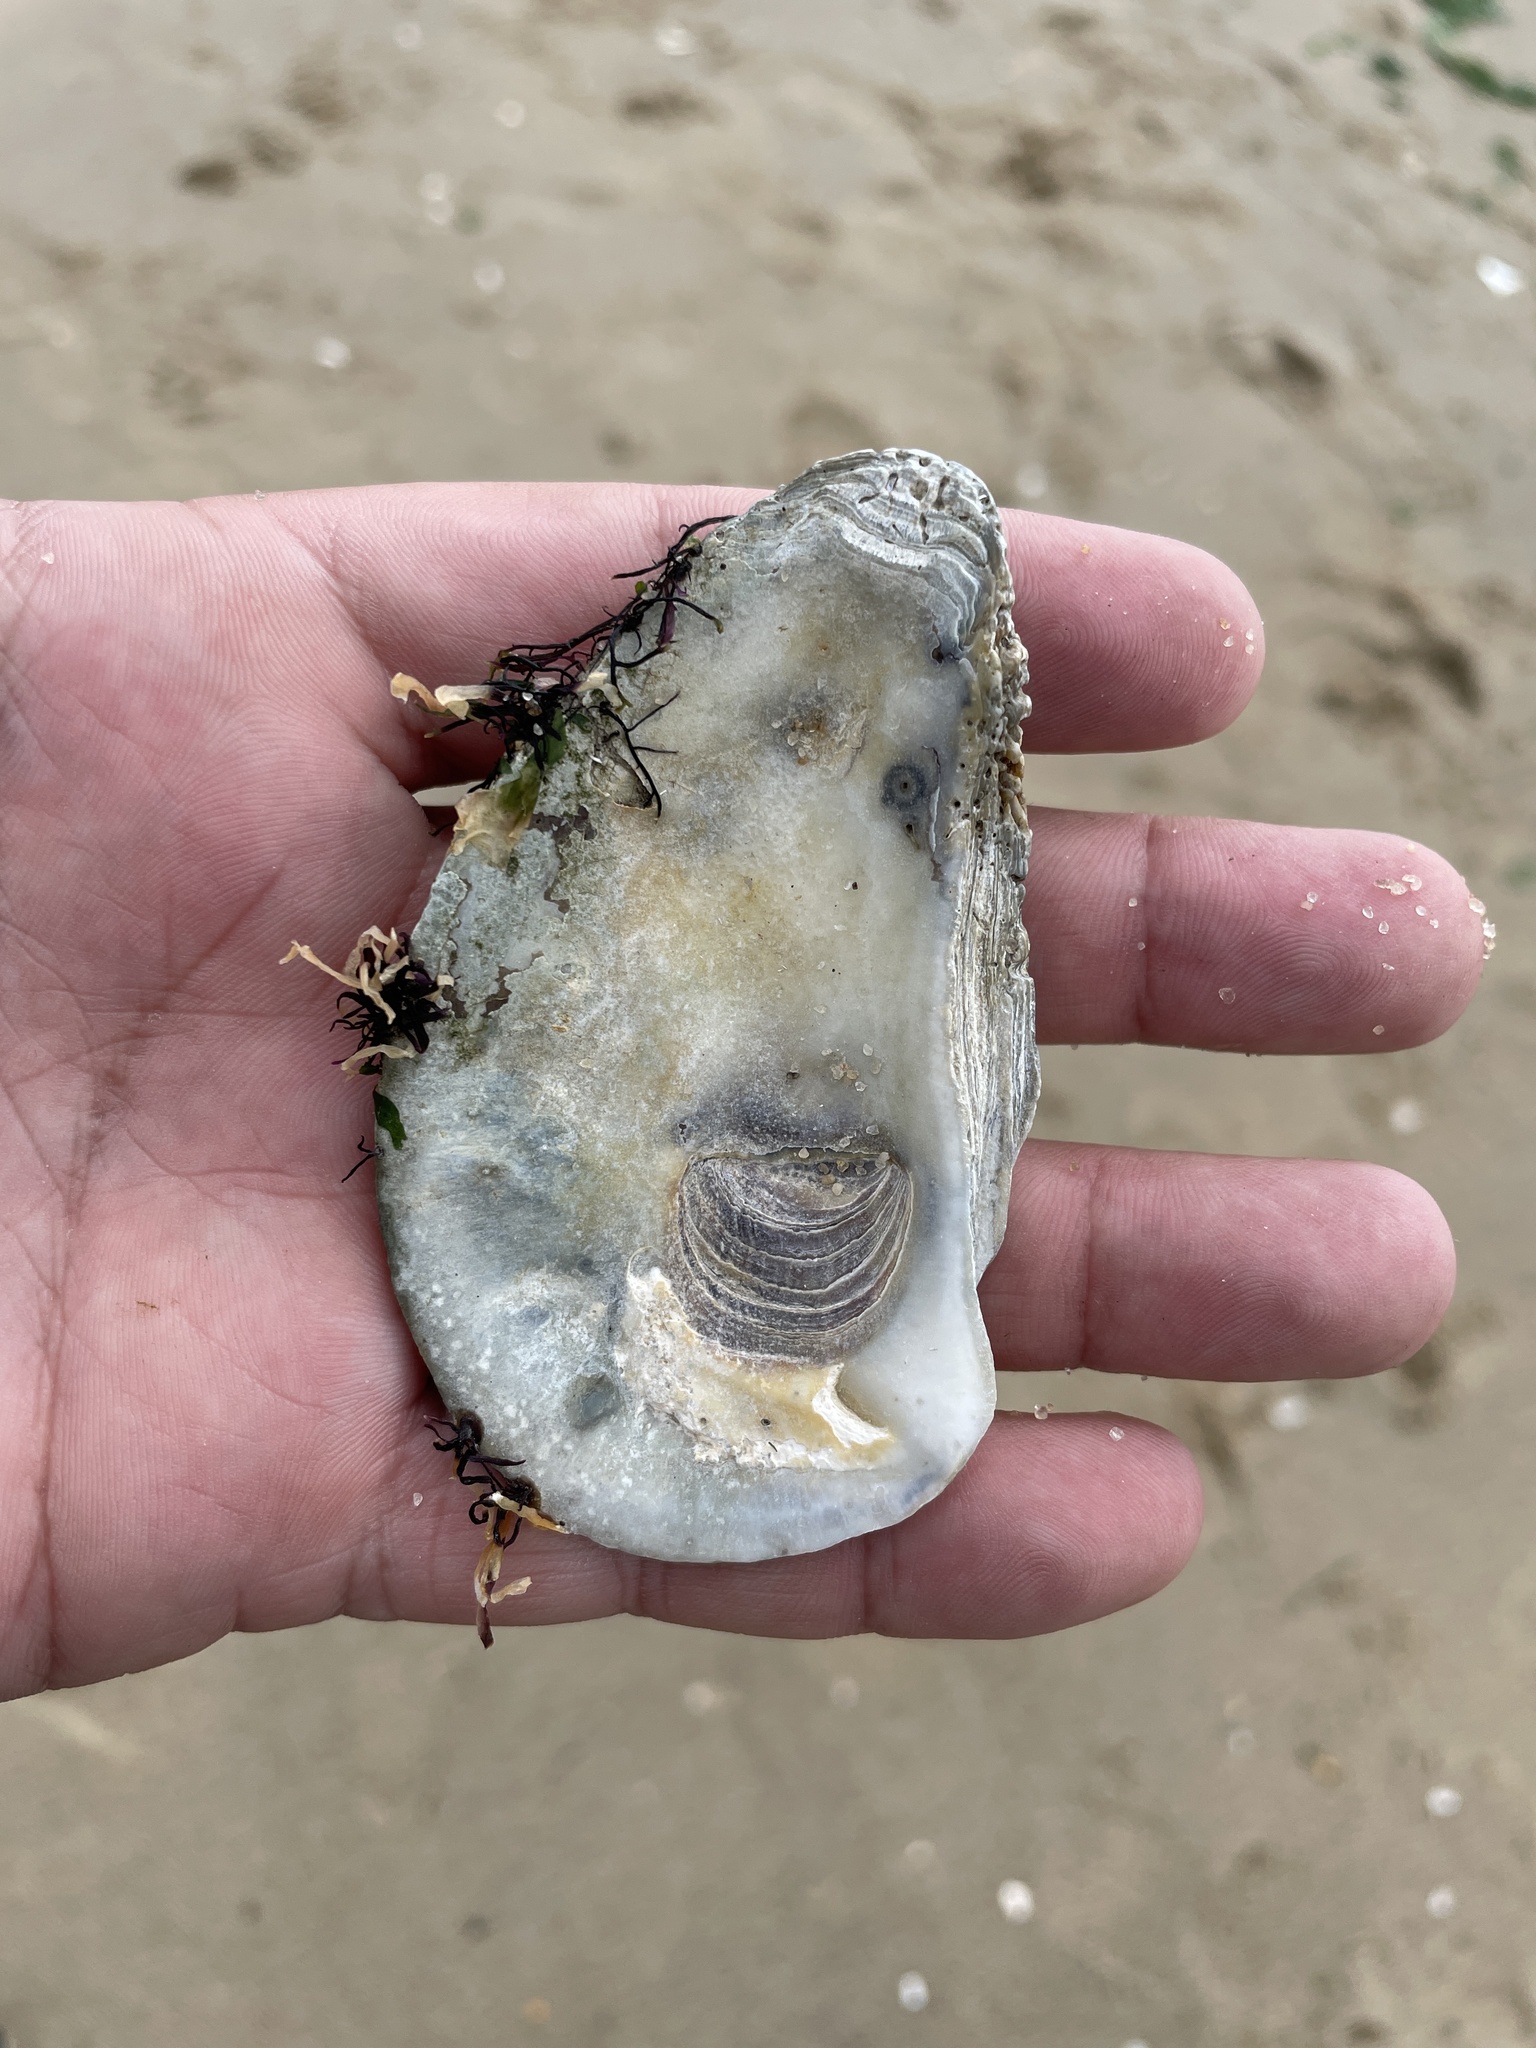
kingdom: Animalia
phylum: Mollusca
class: Bivalvia
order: Ostreida
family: Ostreidae
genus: Crassostrea
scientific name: Crassostrea virginica
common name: American oyster
